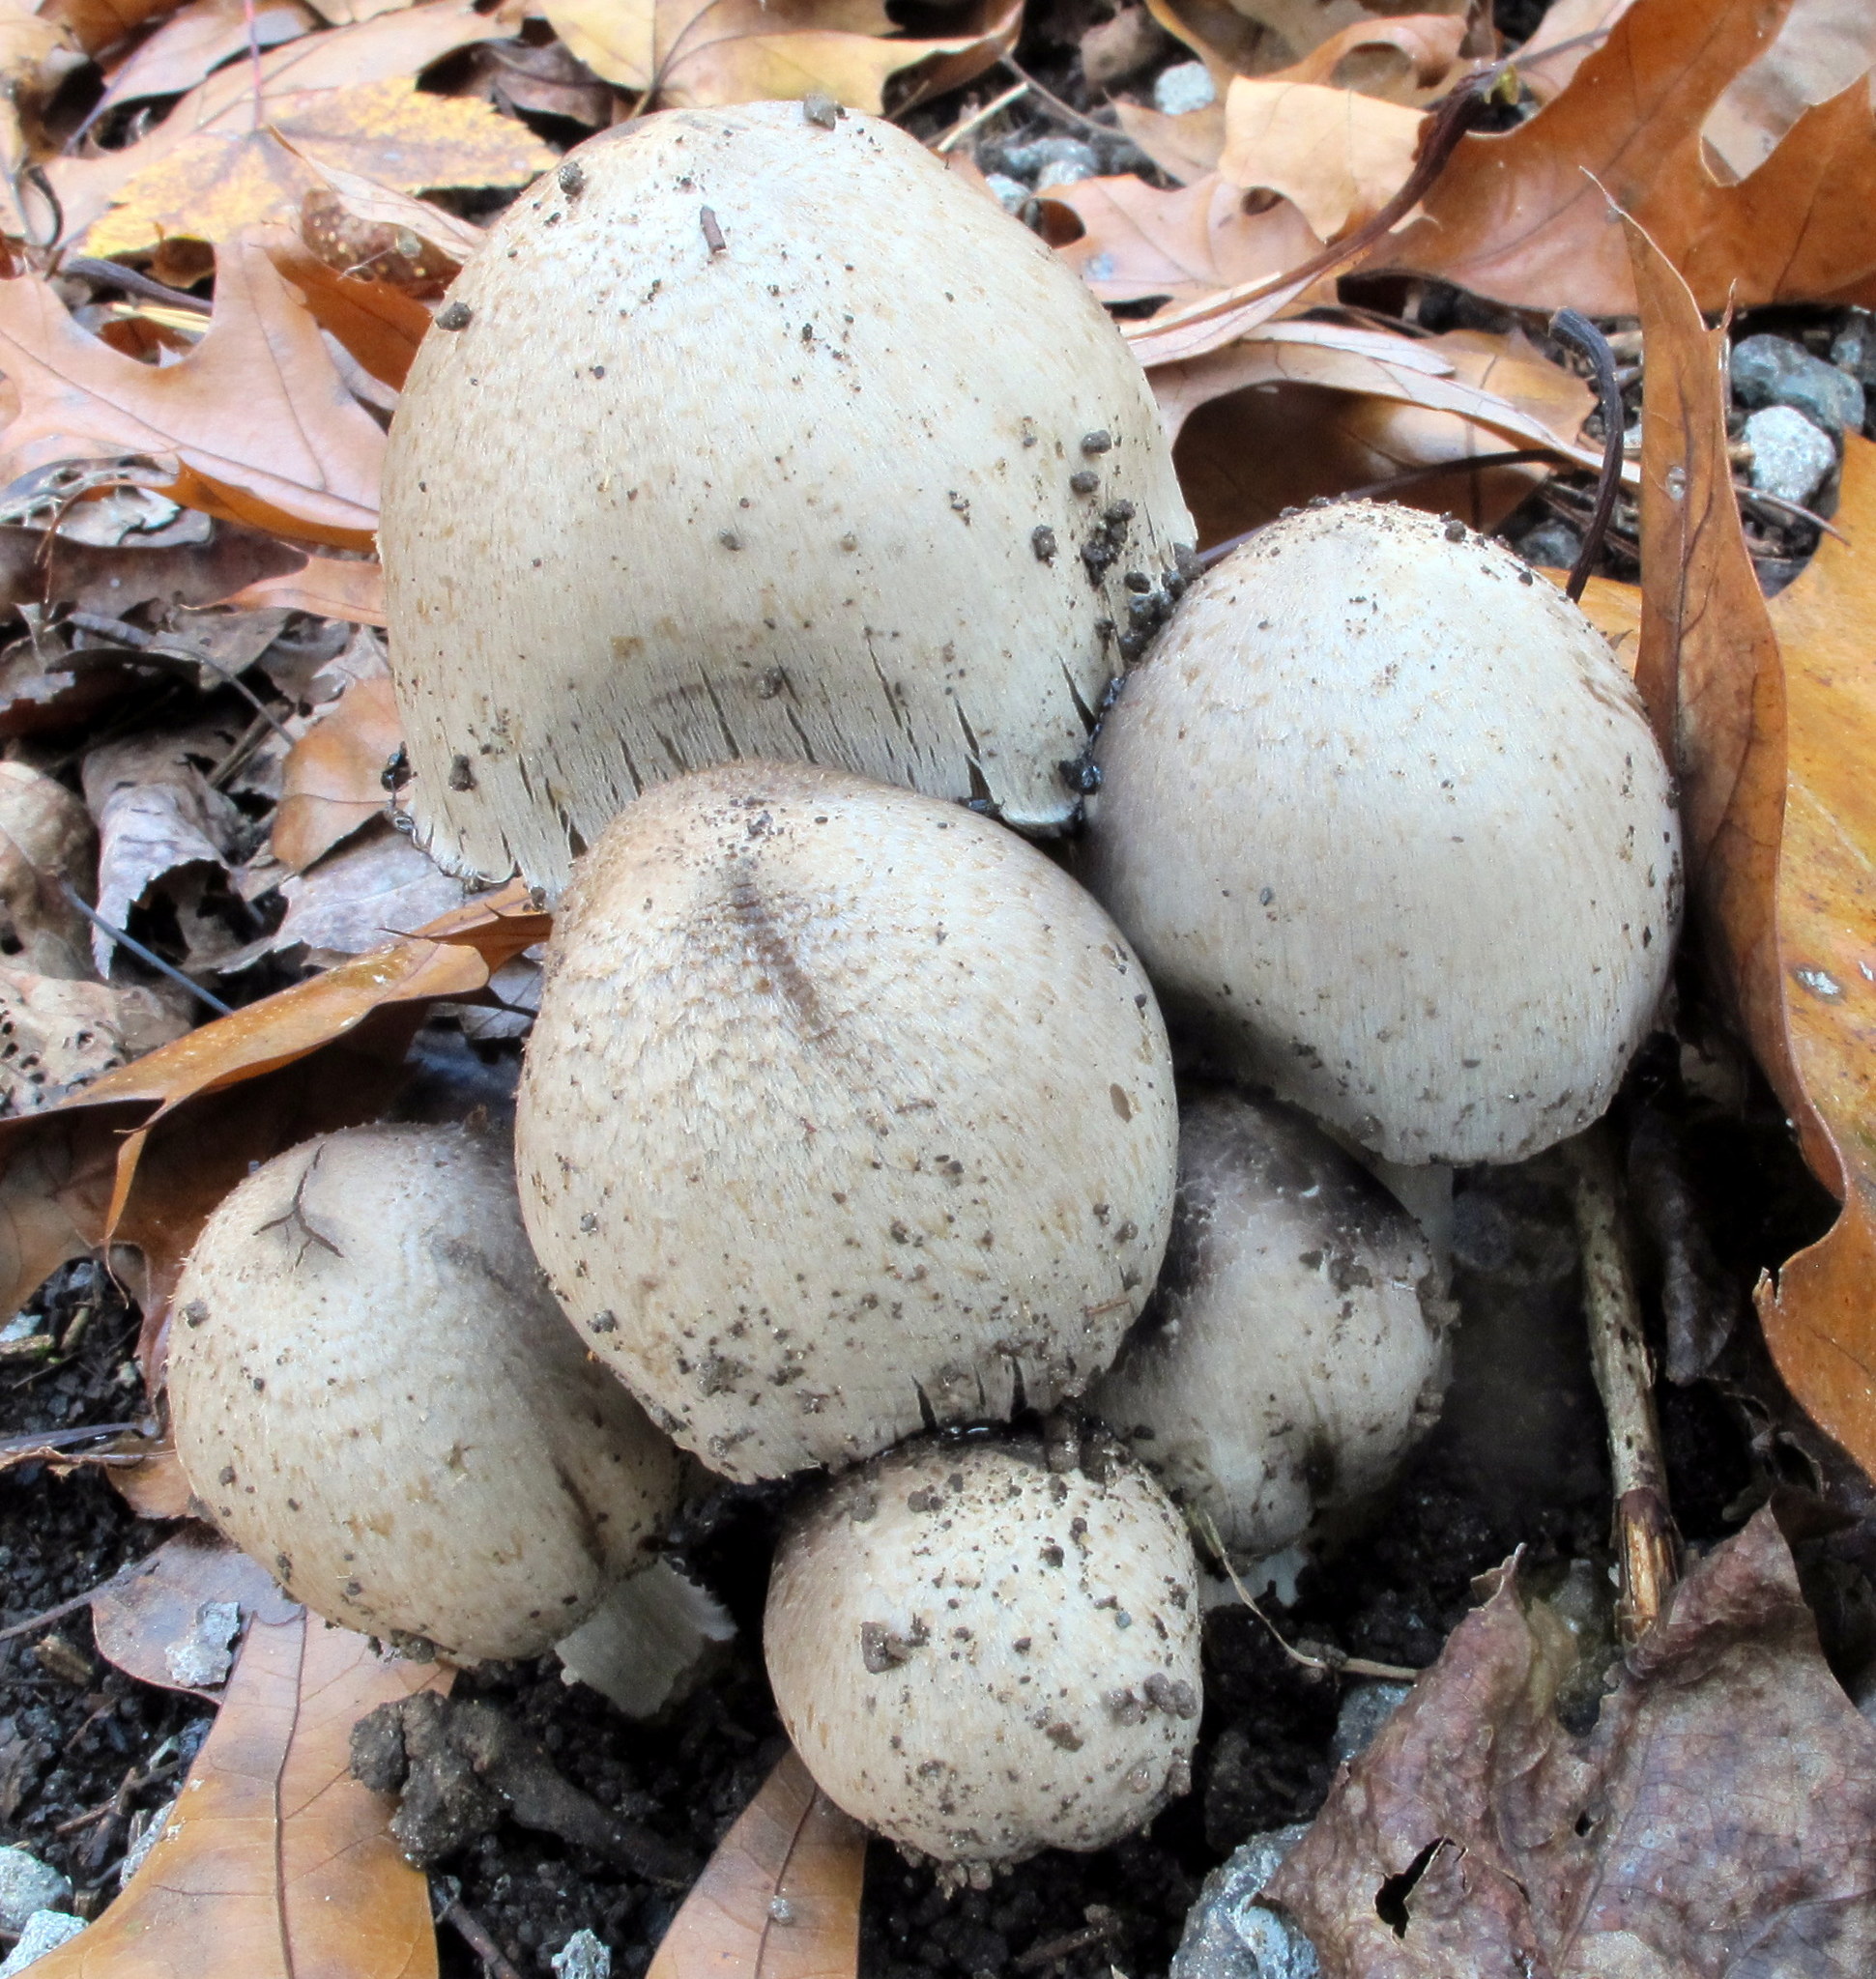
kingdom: Fungi
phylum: Basidiomycota
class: Agaricomycetes
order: Agaricales
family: Psathyrellaceae
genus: Coprinopsis
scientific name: Coprinopsis atramentaria
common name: Common ink-cap
